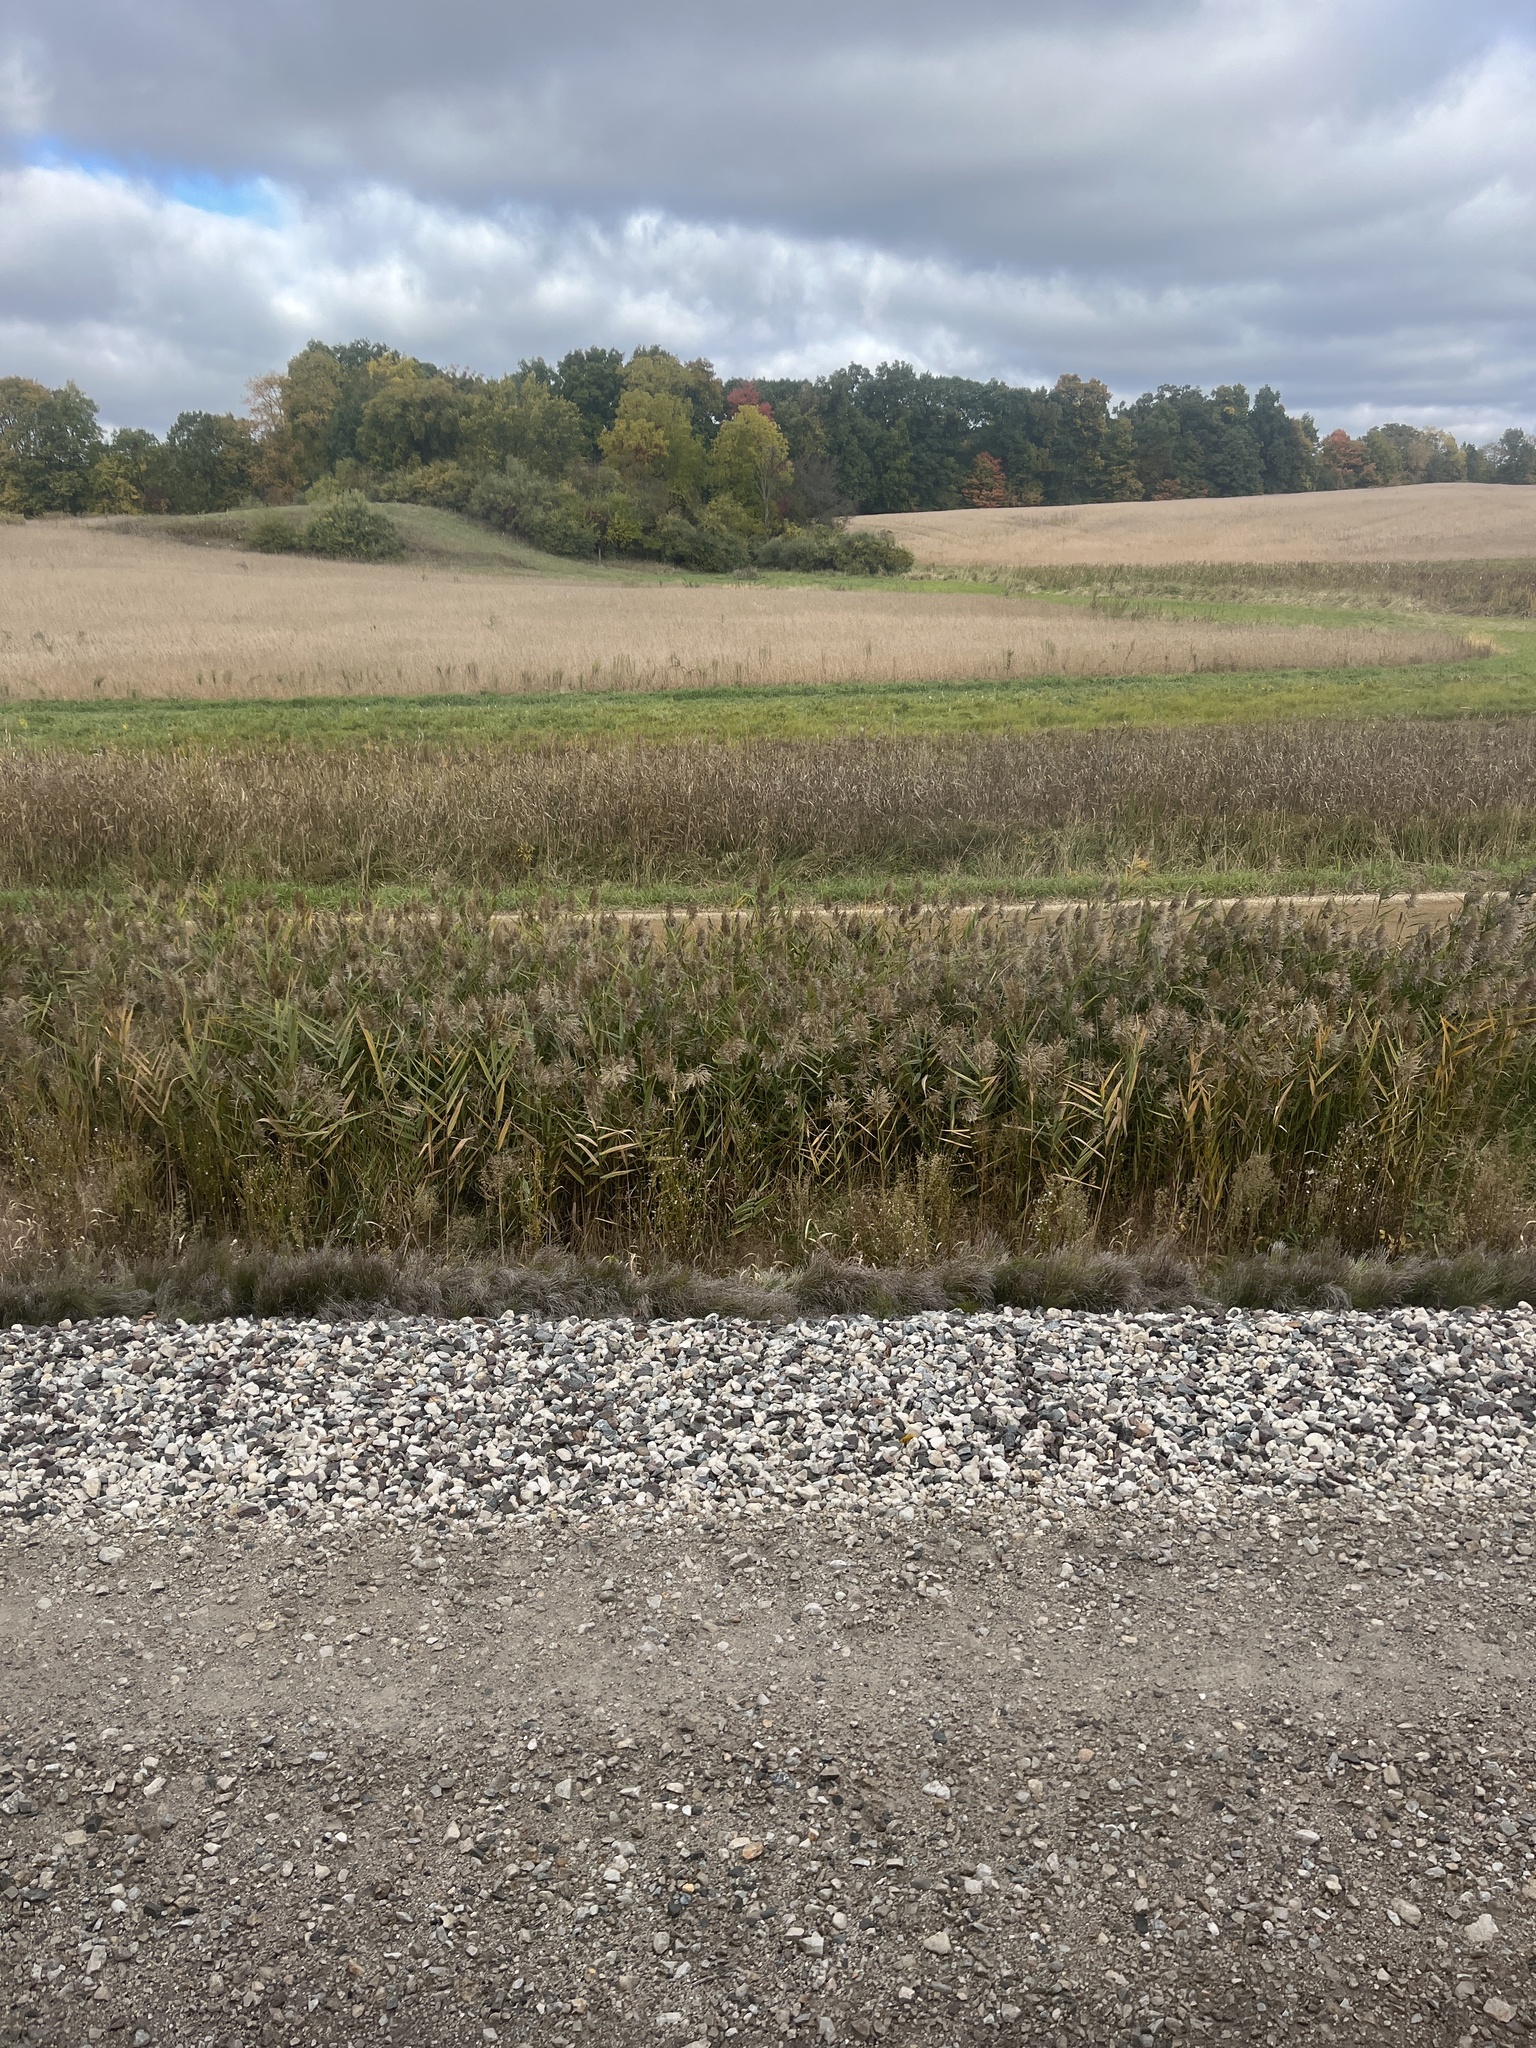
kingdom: Plantae
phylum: Tracheophyta
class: Liliopsida
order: Poales
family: Poaceae
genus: Phragmites
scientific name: Phragmites australis
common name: Common reed
